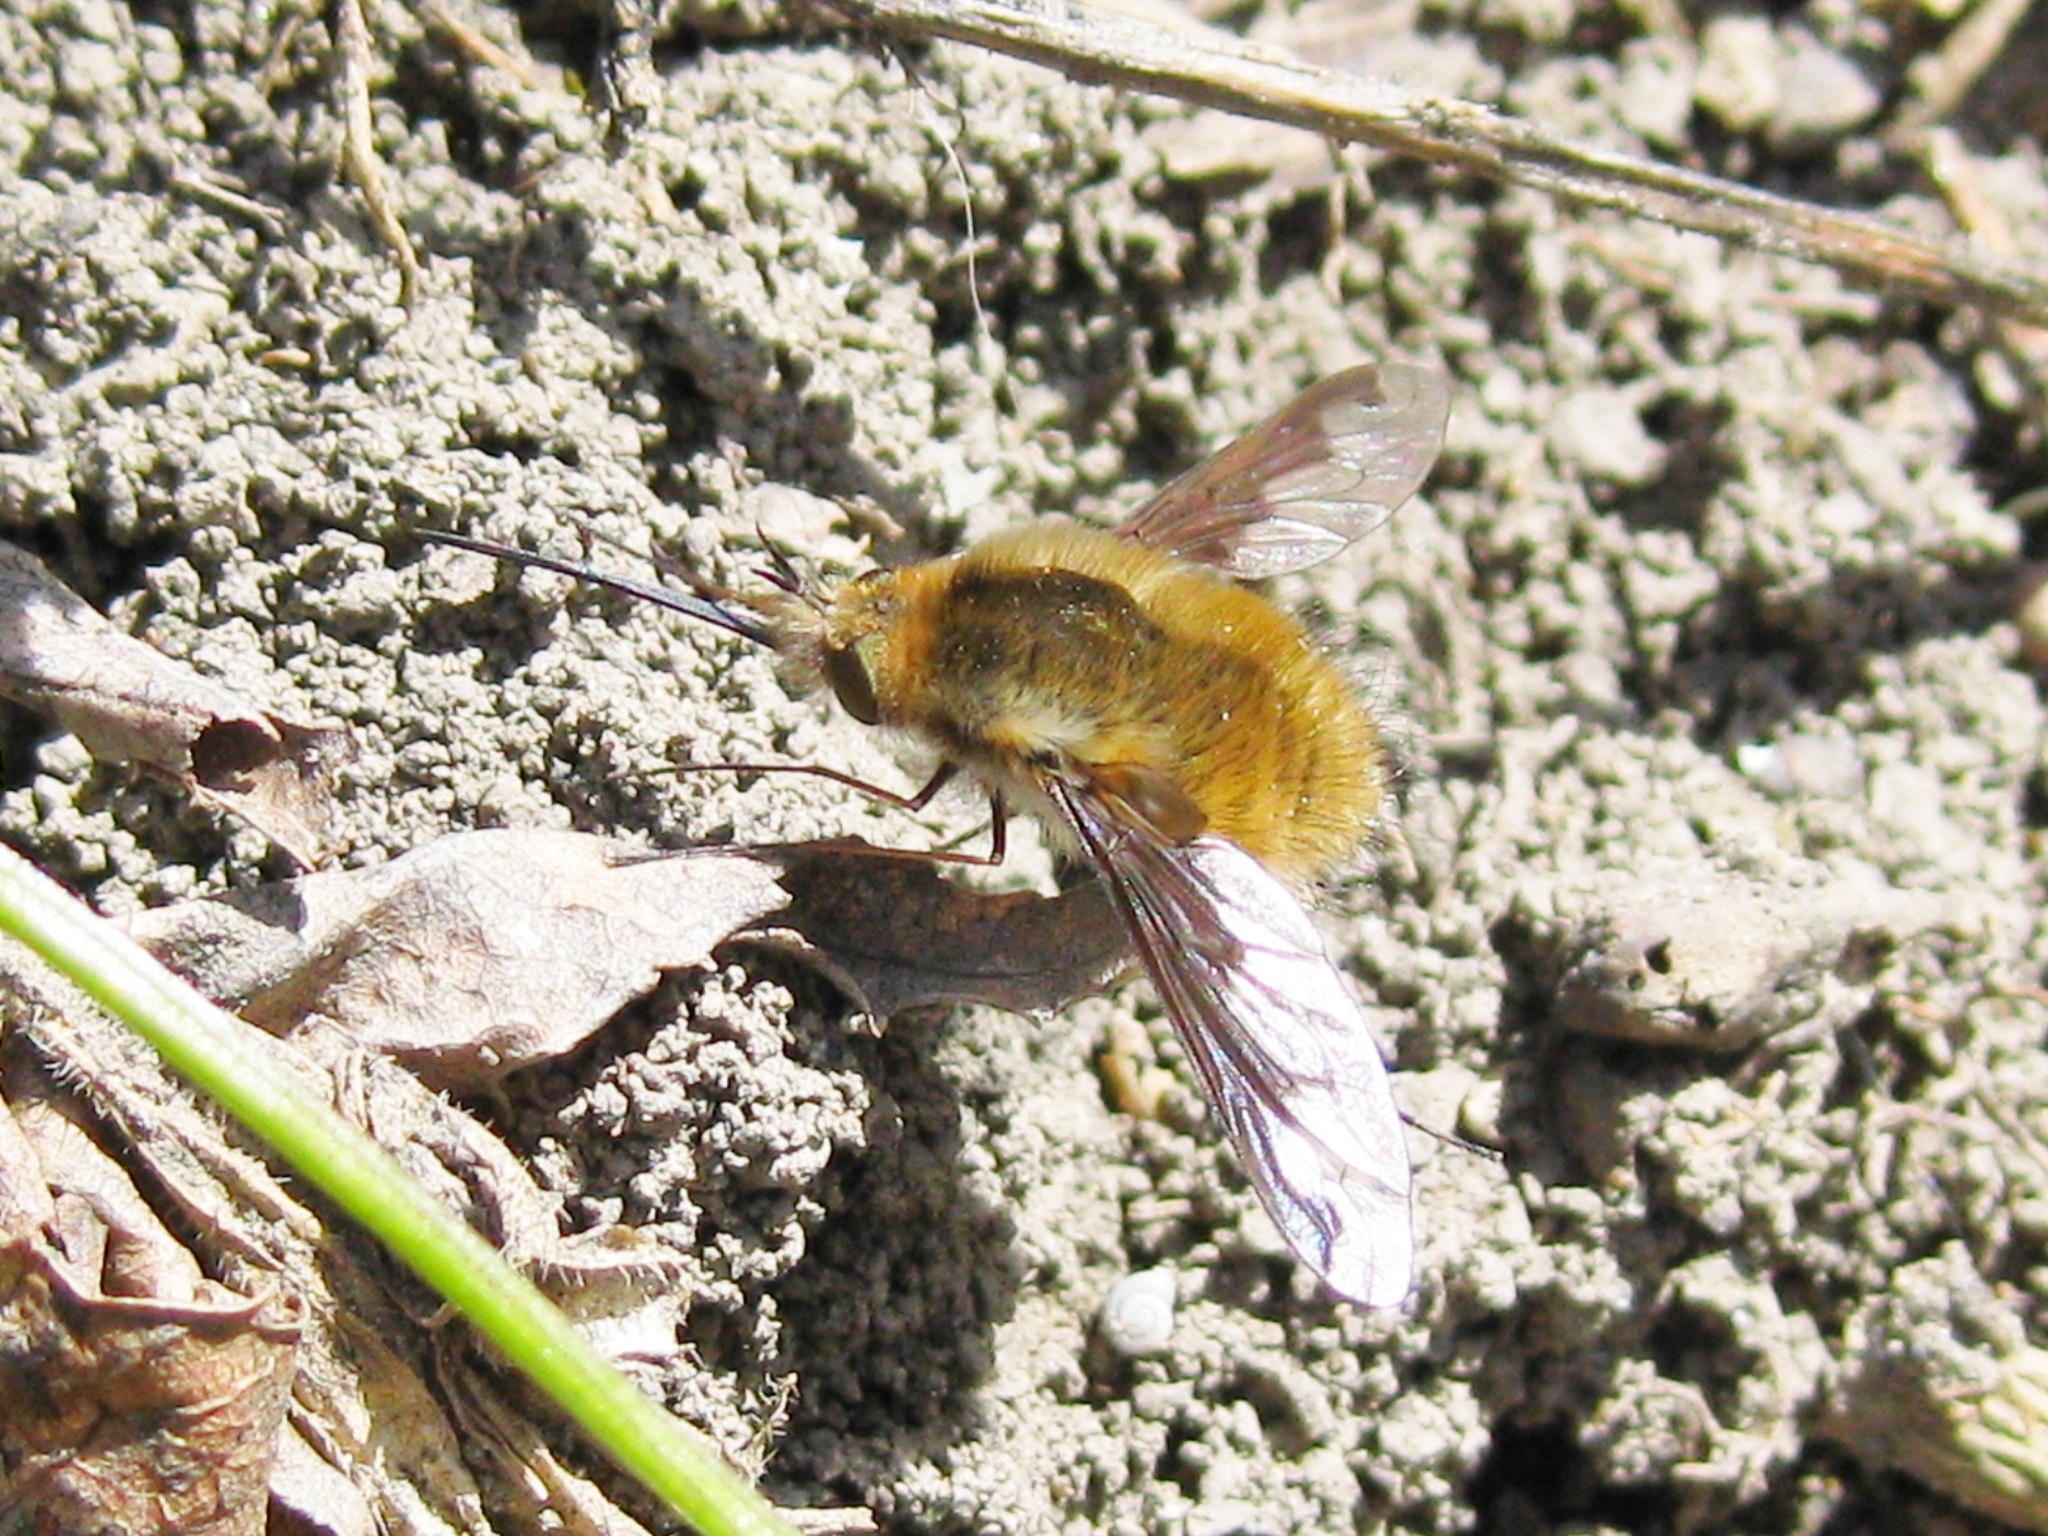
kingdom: Animalia
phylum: Arthropoda
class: Insecta
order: Diptera
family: Bombyliidae
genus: Bombylius
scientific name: Bombylius major
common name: Bee fly
